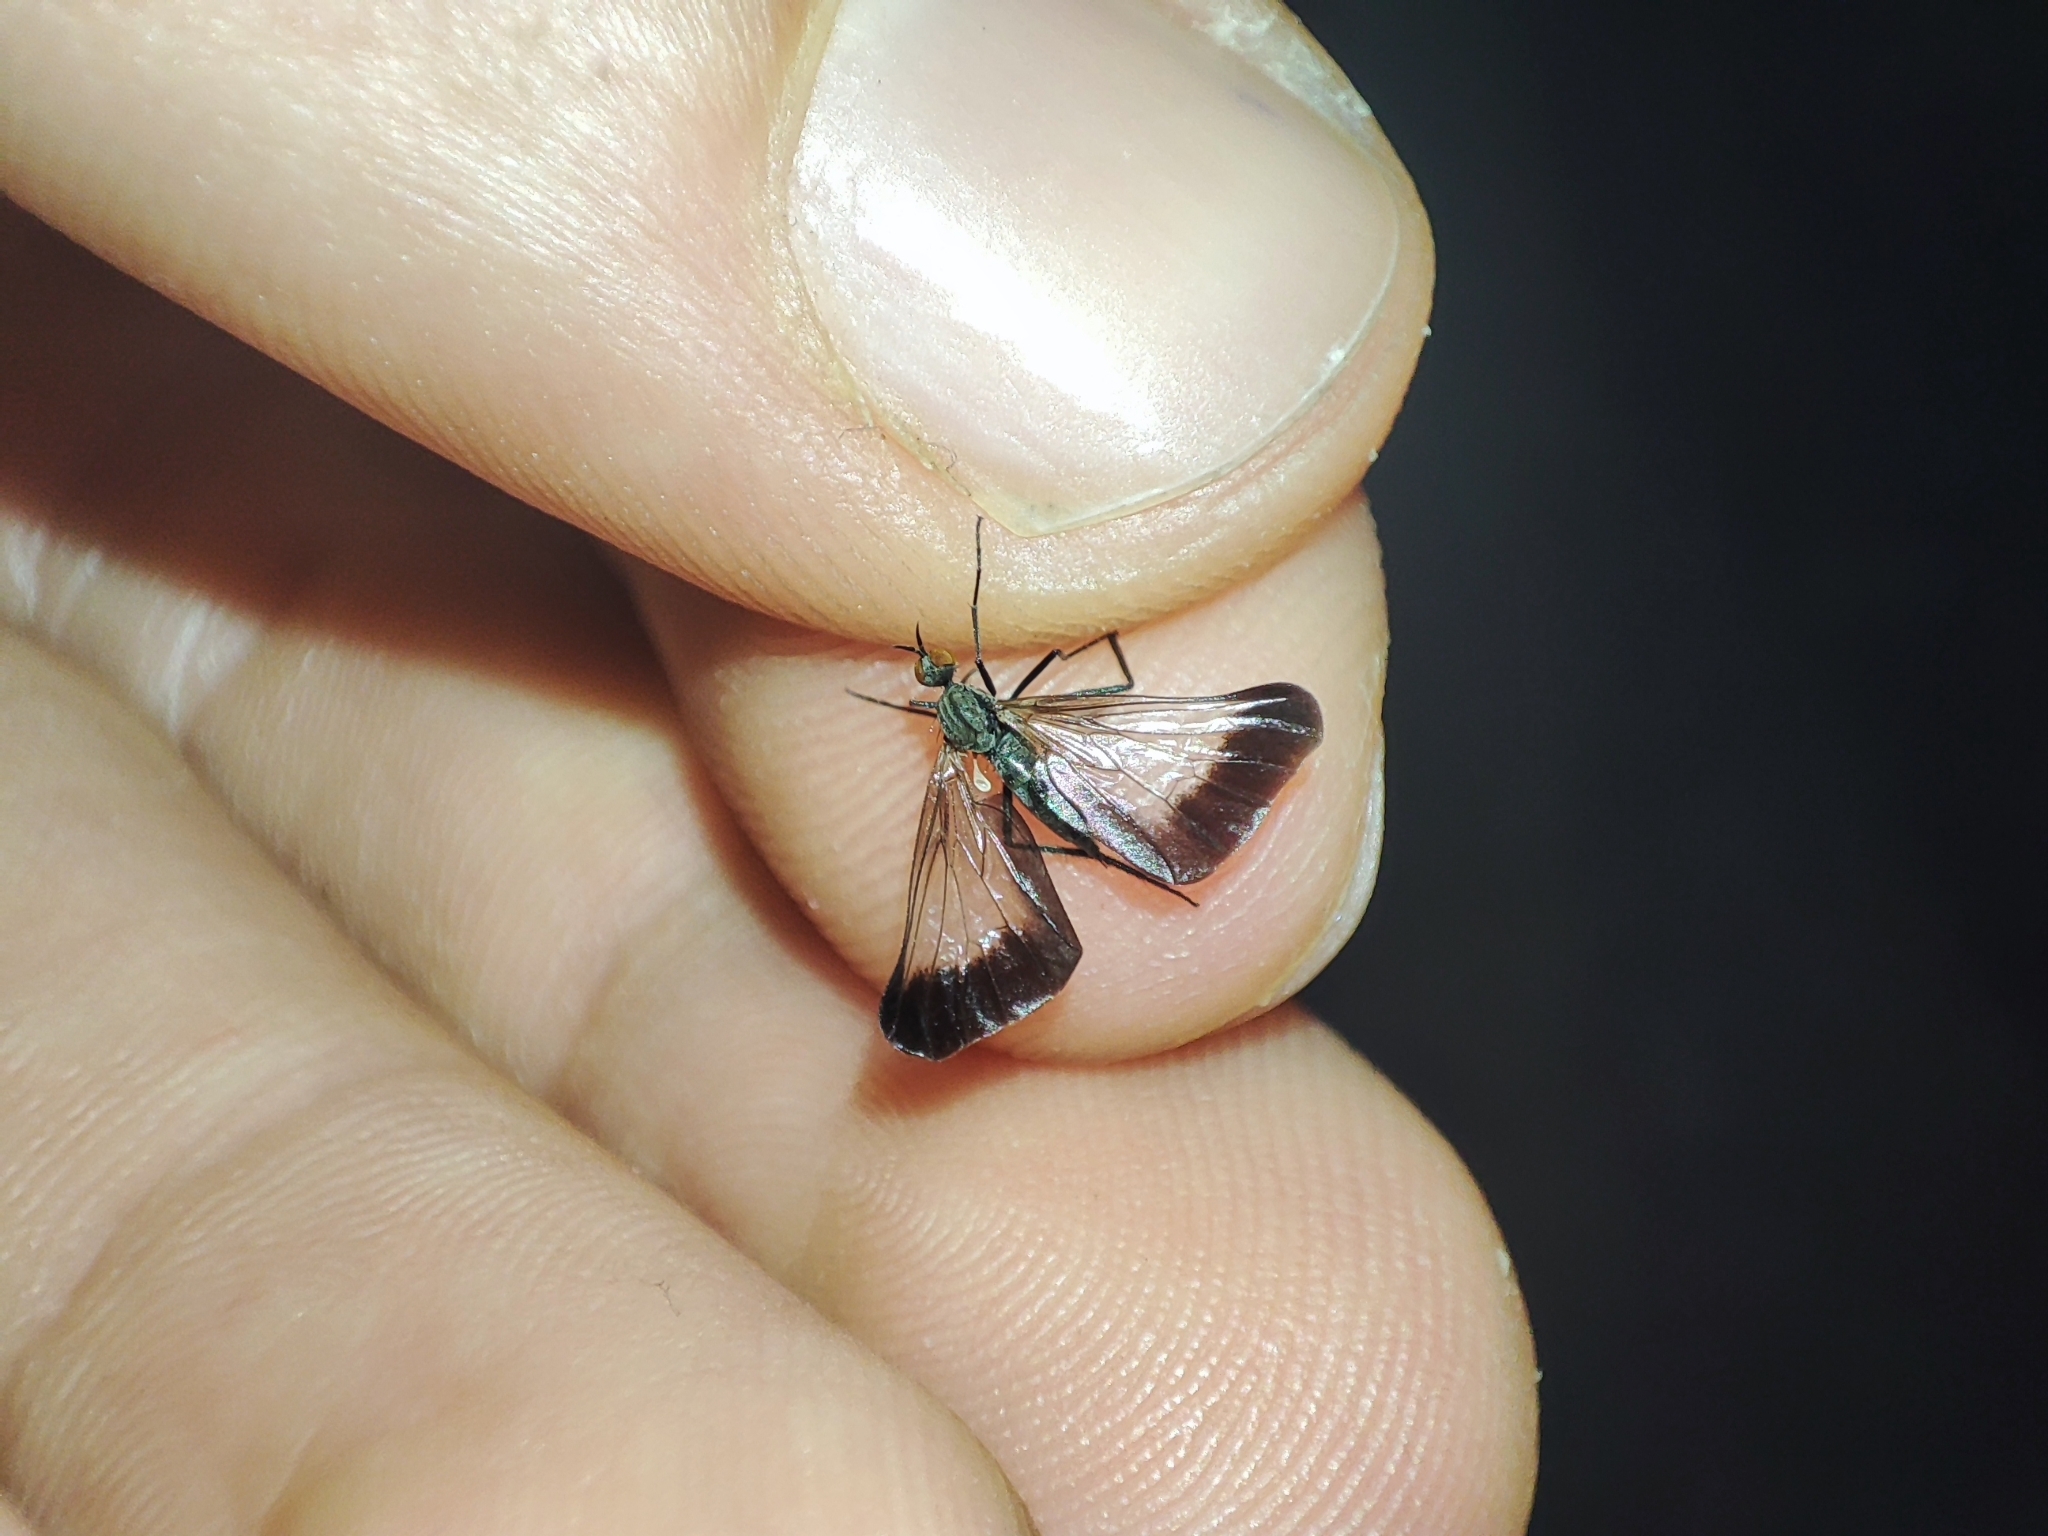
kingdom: Animalia
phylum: Arthropoda
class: Insecta
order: Diptera
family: Empididae
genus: Rhamphomyia
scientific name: Rhamphomyia marginata
